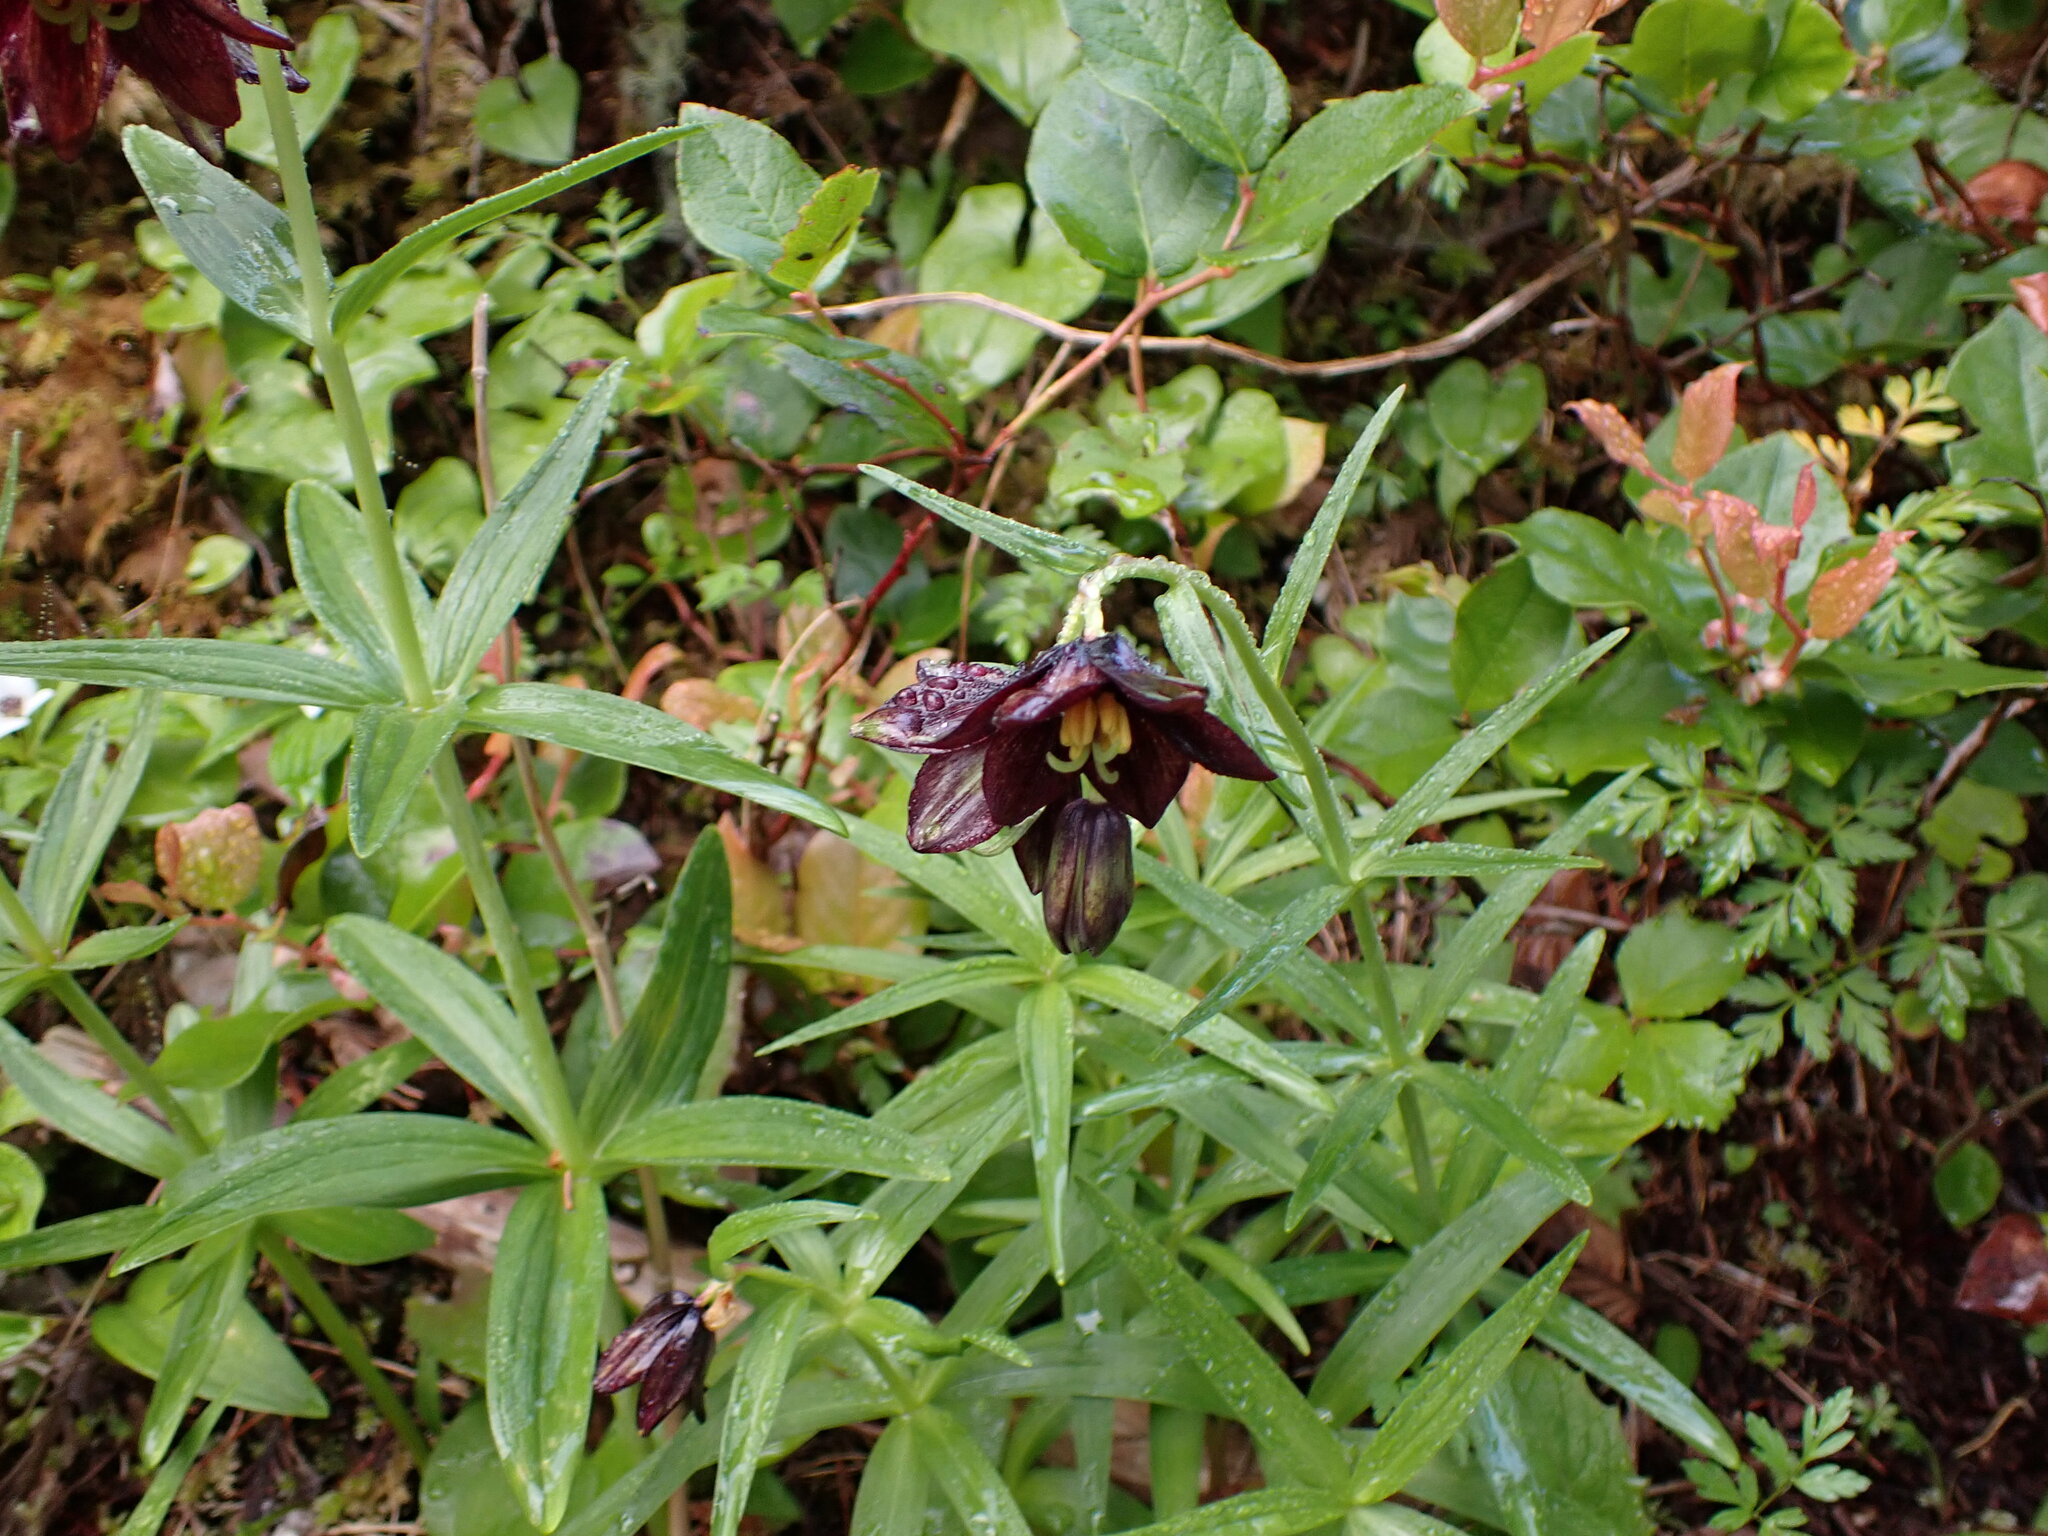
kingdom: Plantae
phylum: Tracheophyta
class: Liliopsida
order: Liliales
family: Liliaceae
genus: Fritillaria
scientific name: Fritillaria camschatcensis
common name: Kamchatka fritillary
